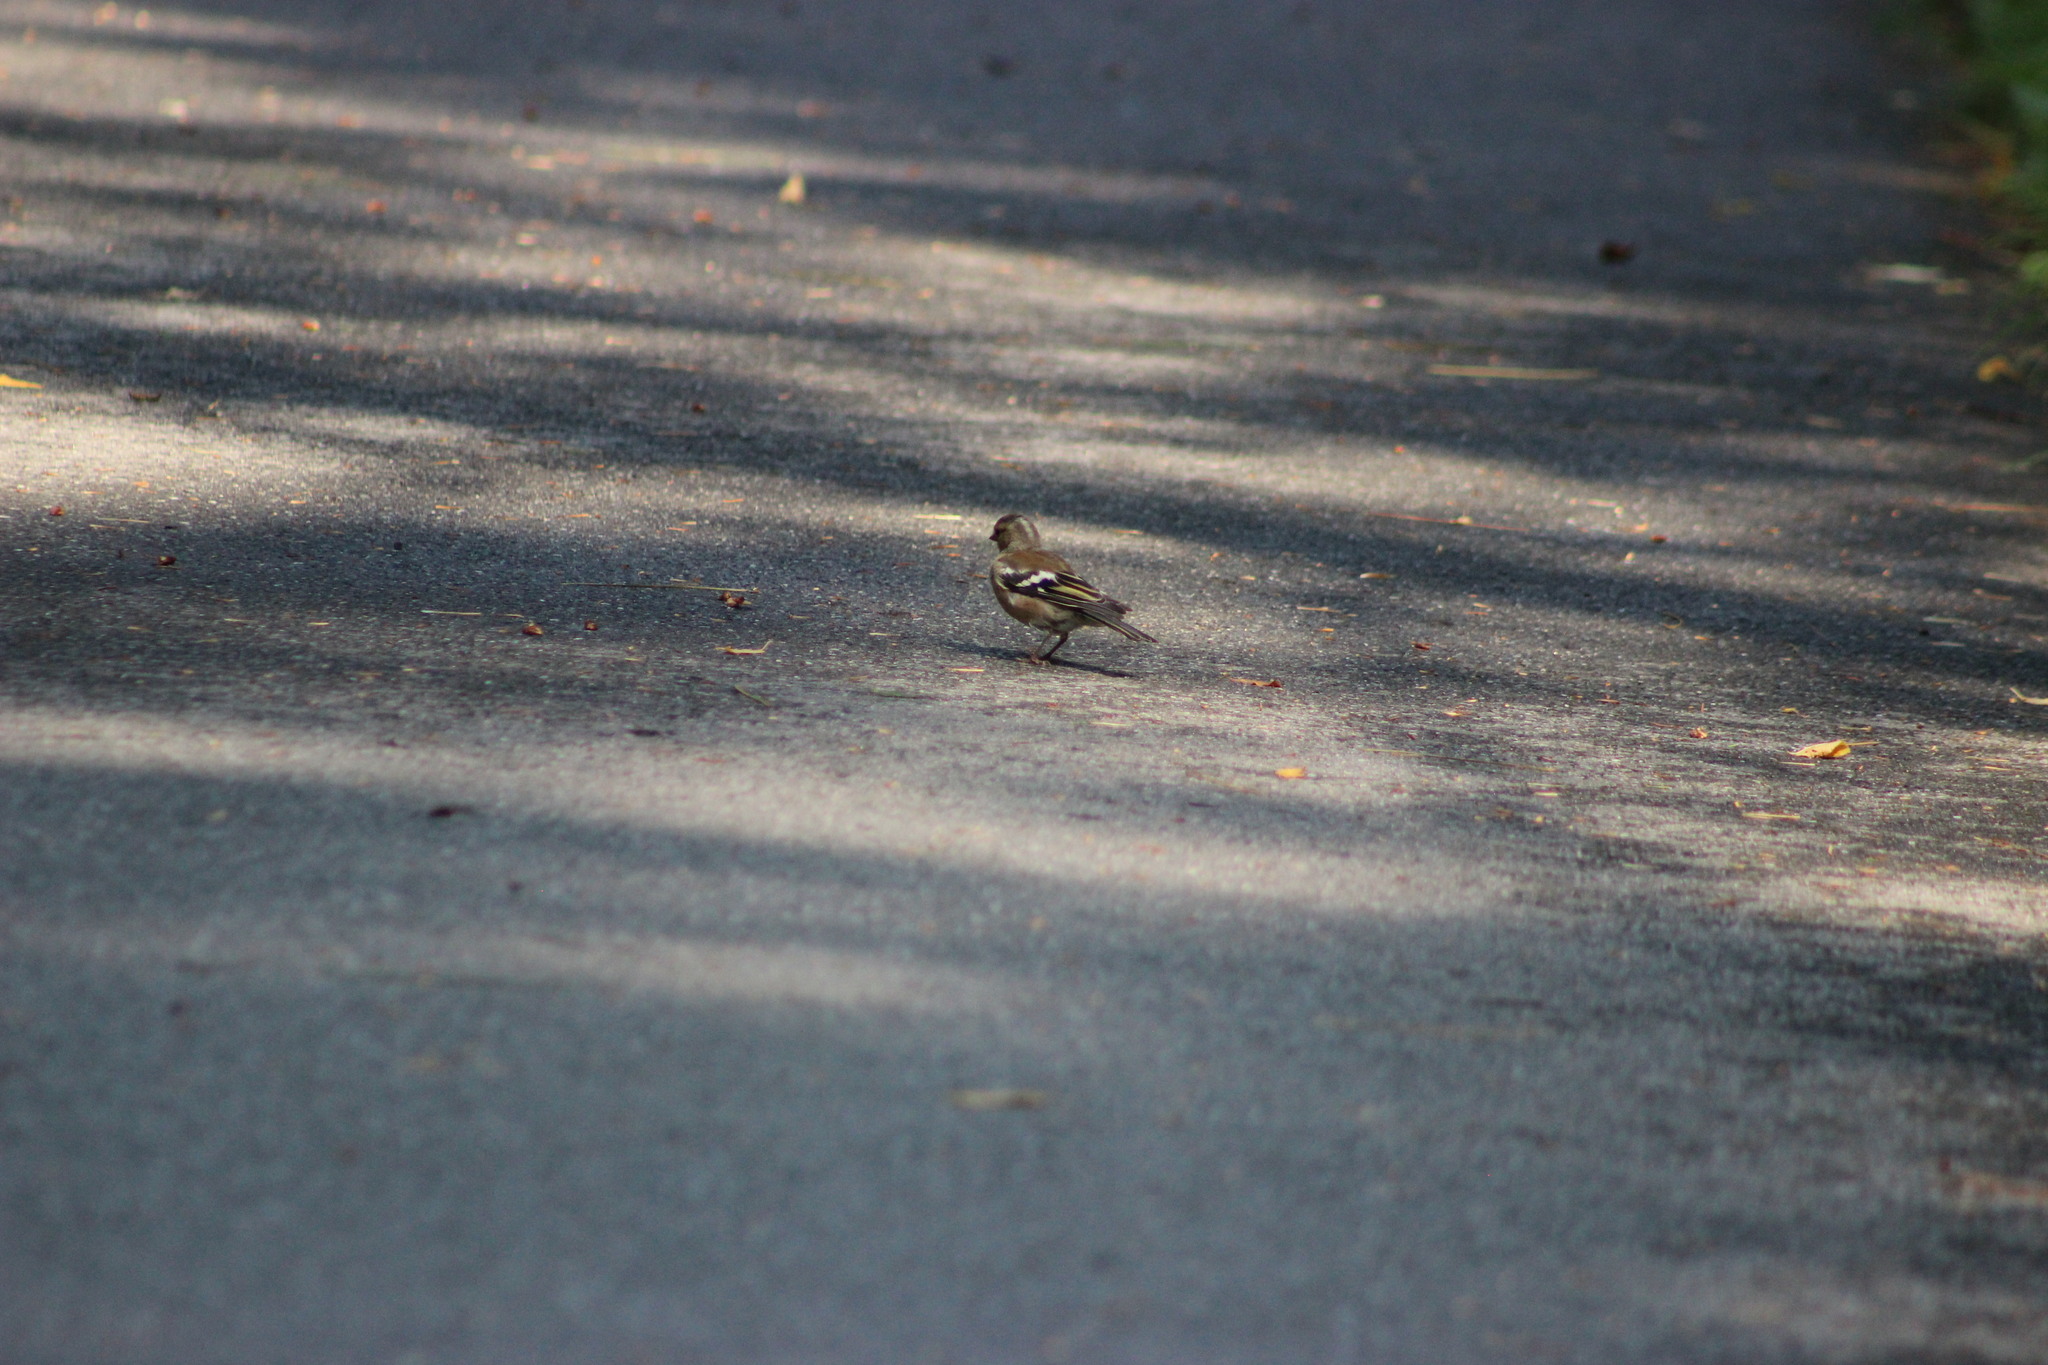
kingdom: Animalia
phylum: Chordata
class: Aves
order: Passeriformes
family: Fringillidae
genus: Fringilla
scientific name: Fringilla coelebs
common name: Common chaffinch
